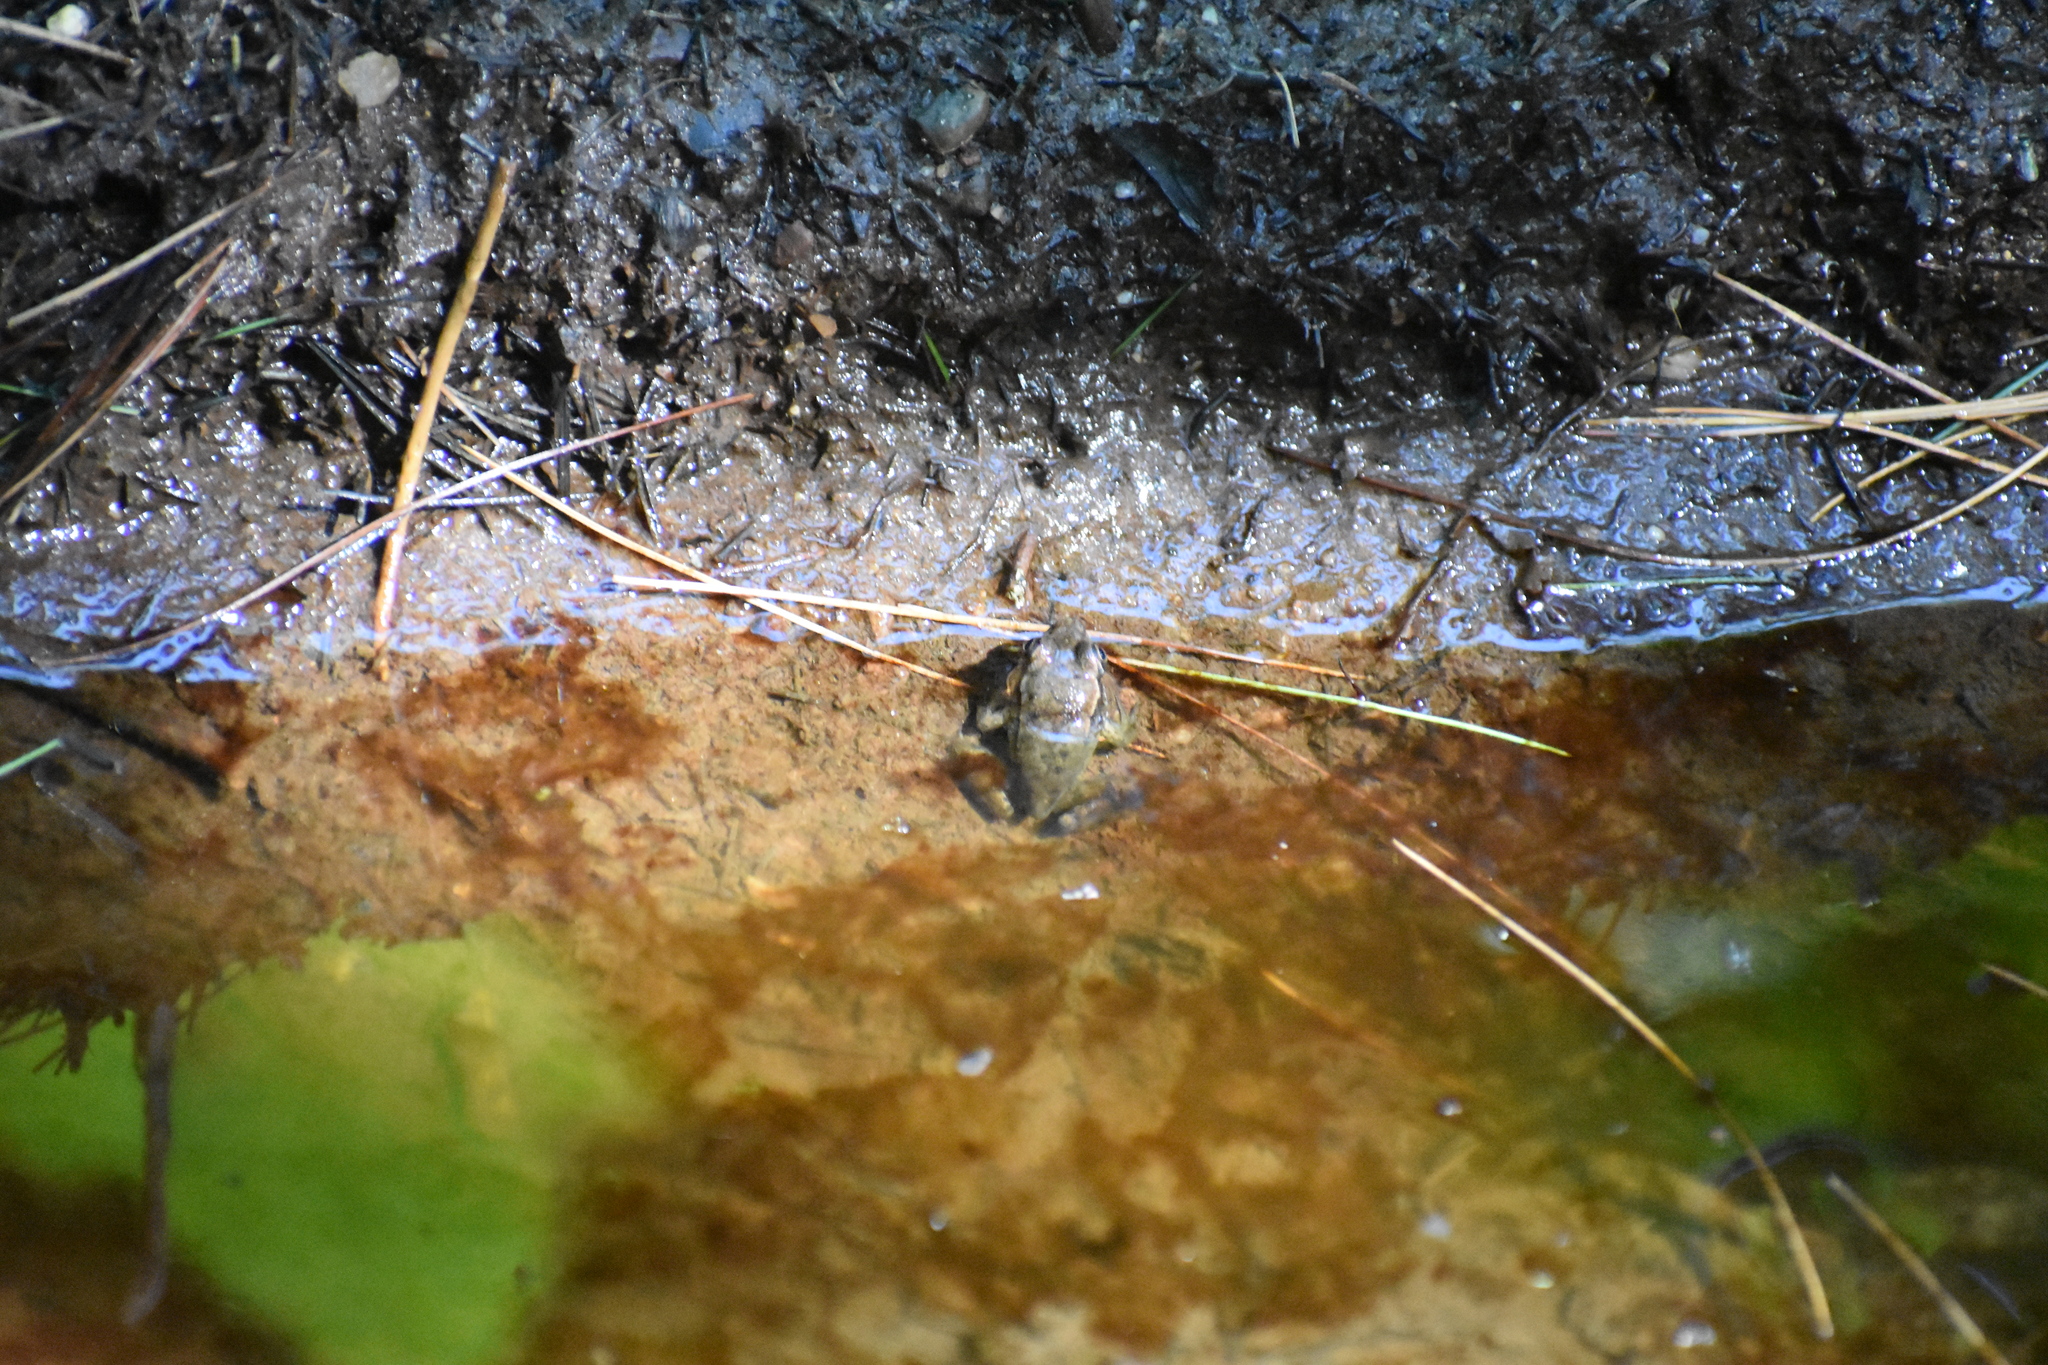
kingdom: Animalia
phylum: Chordata
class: Amphibia
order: Anura
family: Ranidae
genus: Lithobates
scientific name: Lithobates clamitans
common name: Green frog
